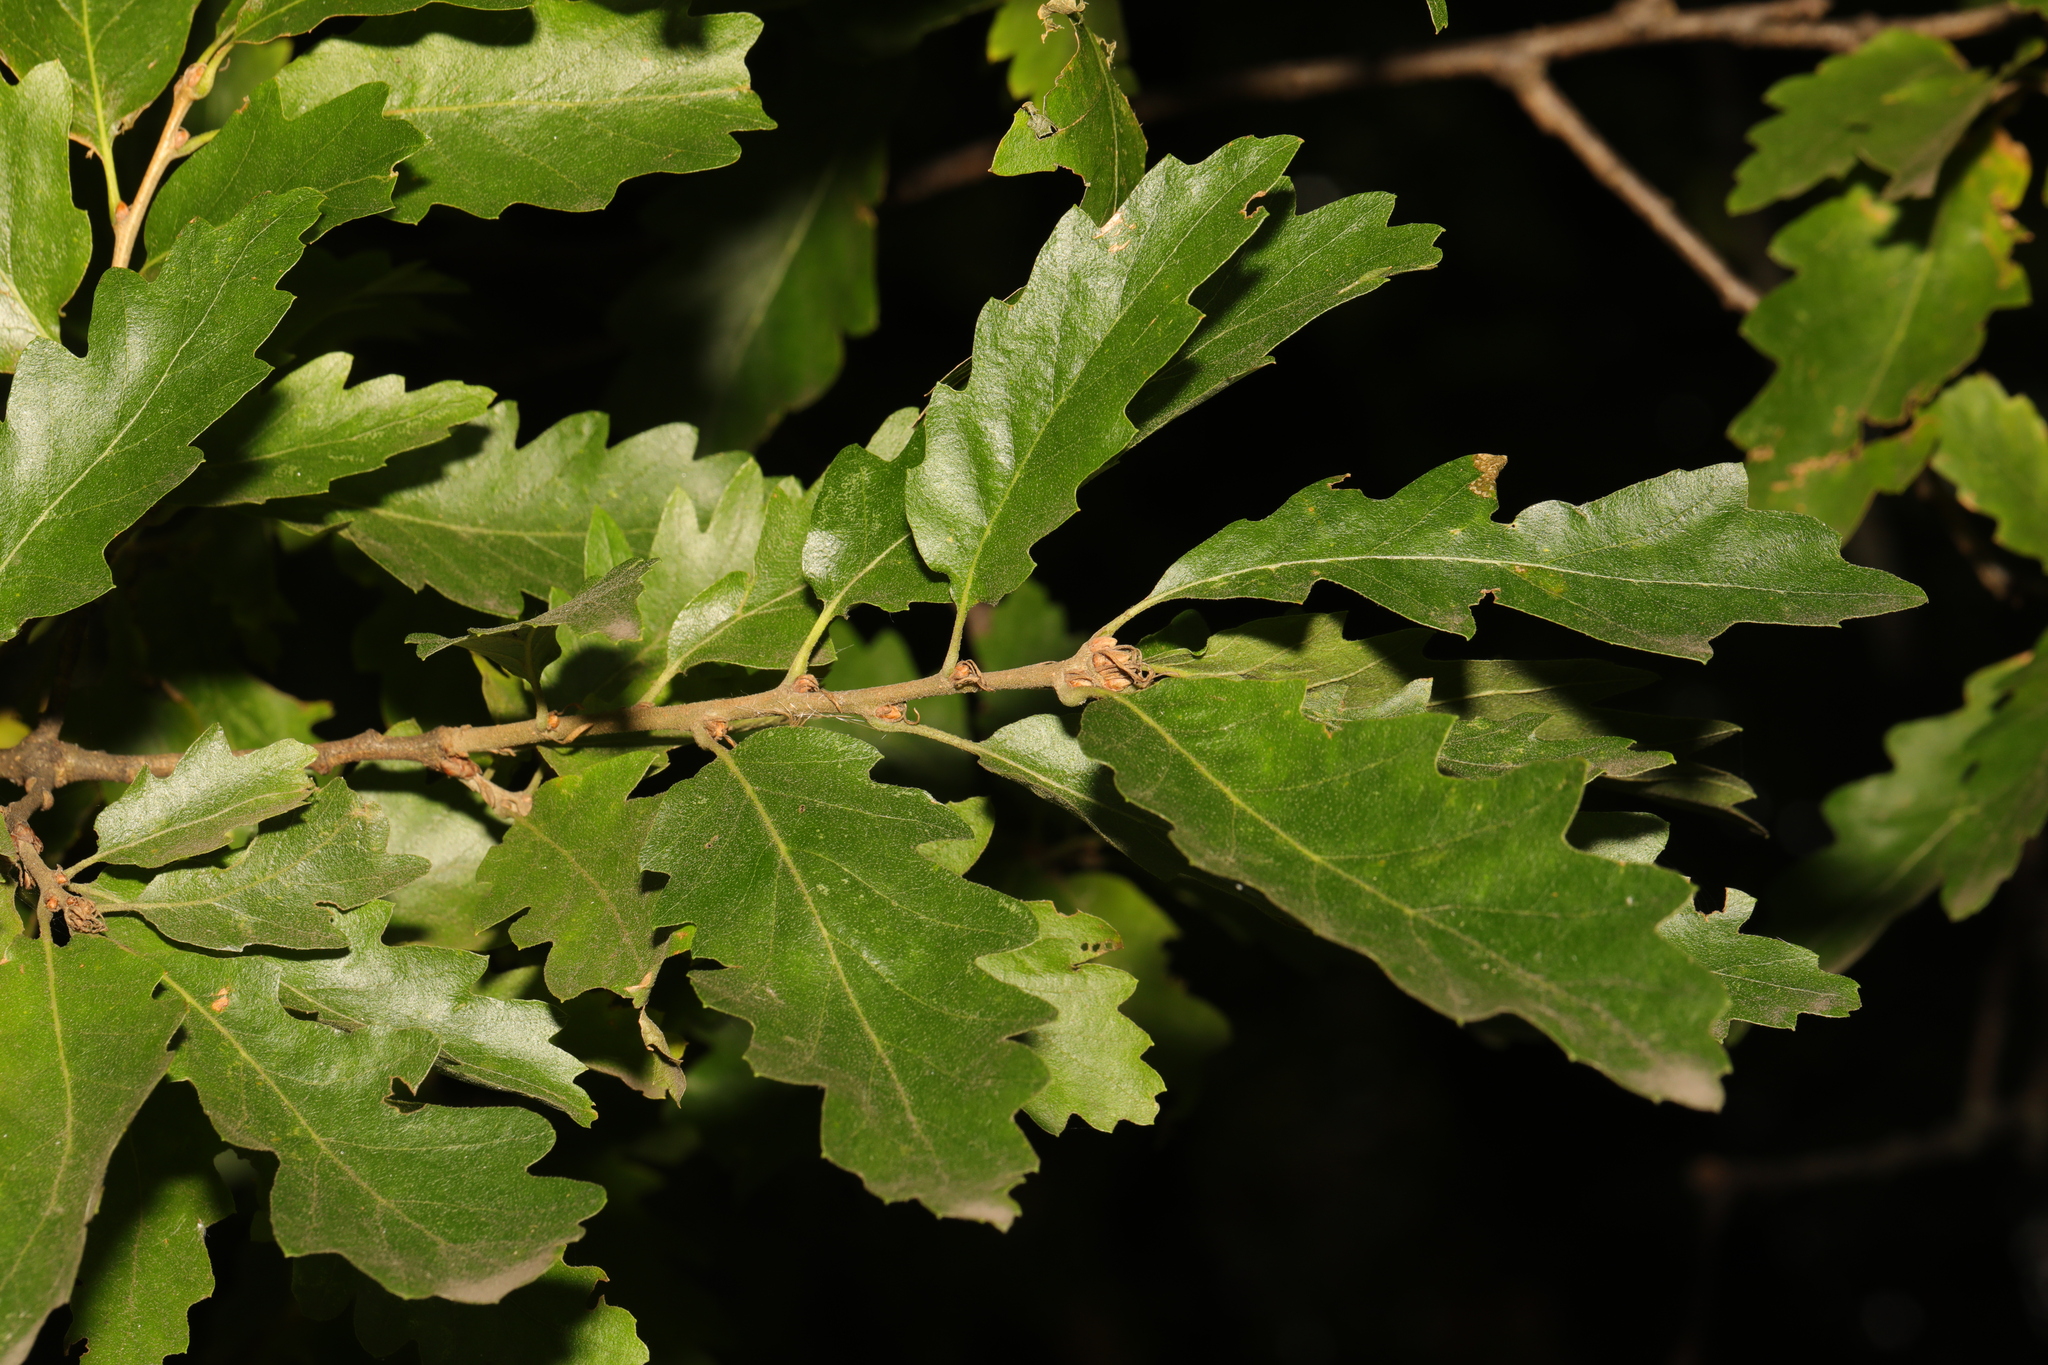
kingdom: Plantae
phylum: Tracheophyta
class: Magnoliopsida
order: Fagales
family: Fagaceae
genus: Quercus
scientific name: Quercus cerris
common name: Turkey oak
